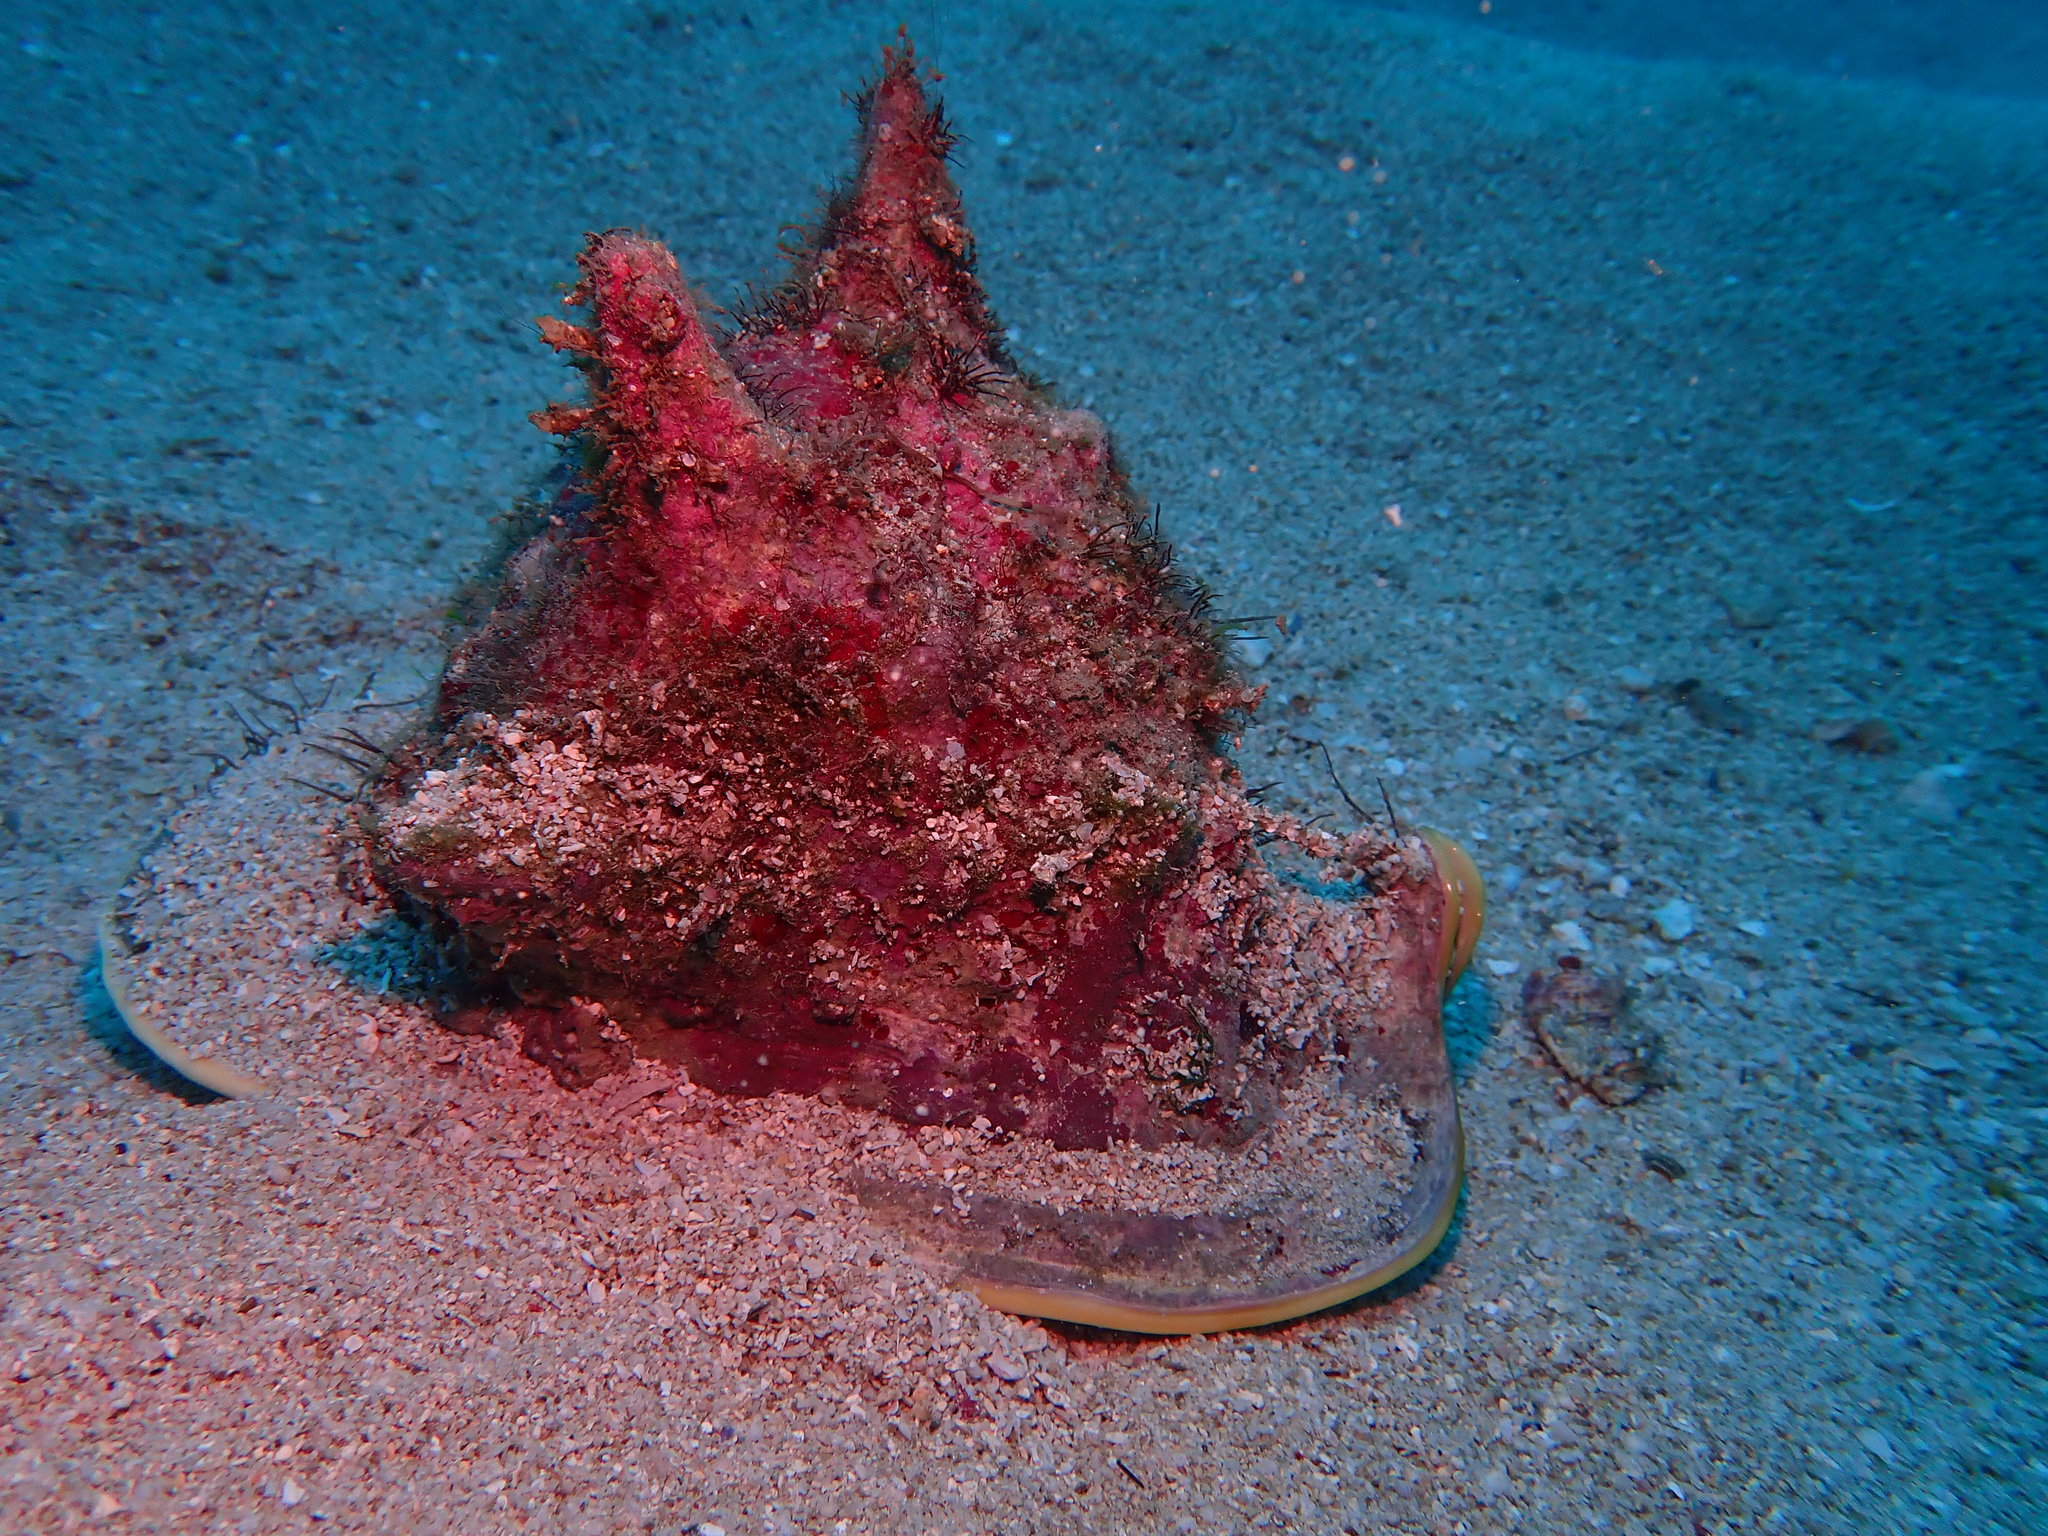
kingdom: Animalia
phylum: Mollusca
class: Gastropoda
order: Littorinimorpha
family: Cassidae
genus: Cassis
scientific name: Cassis cornuta
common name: Giant helmet
